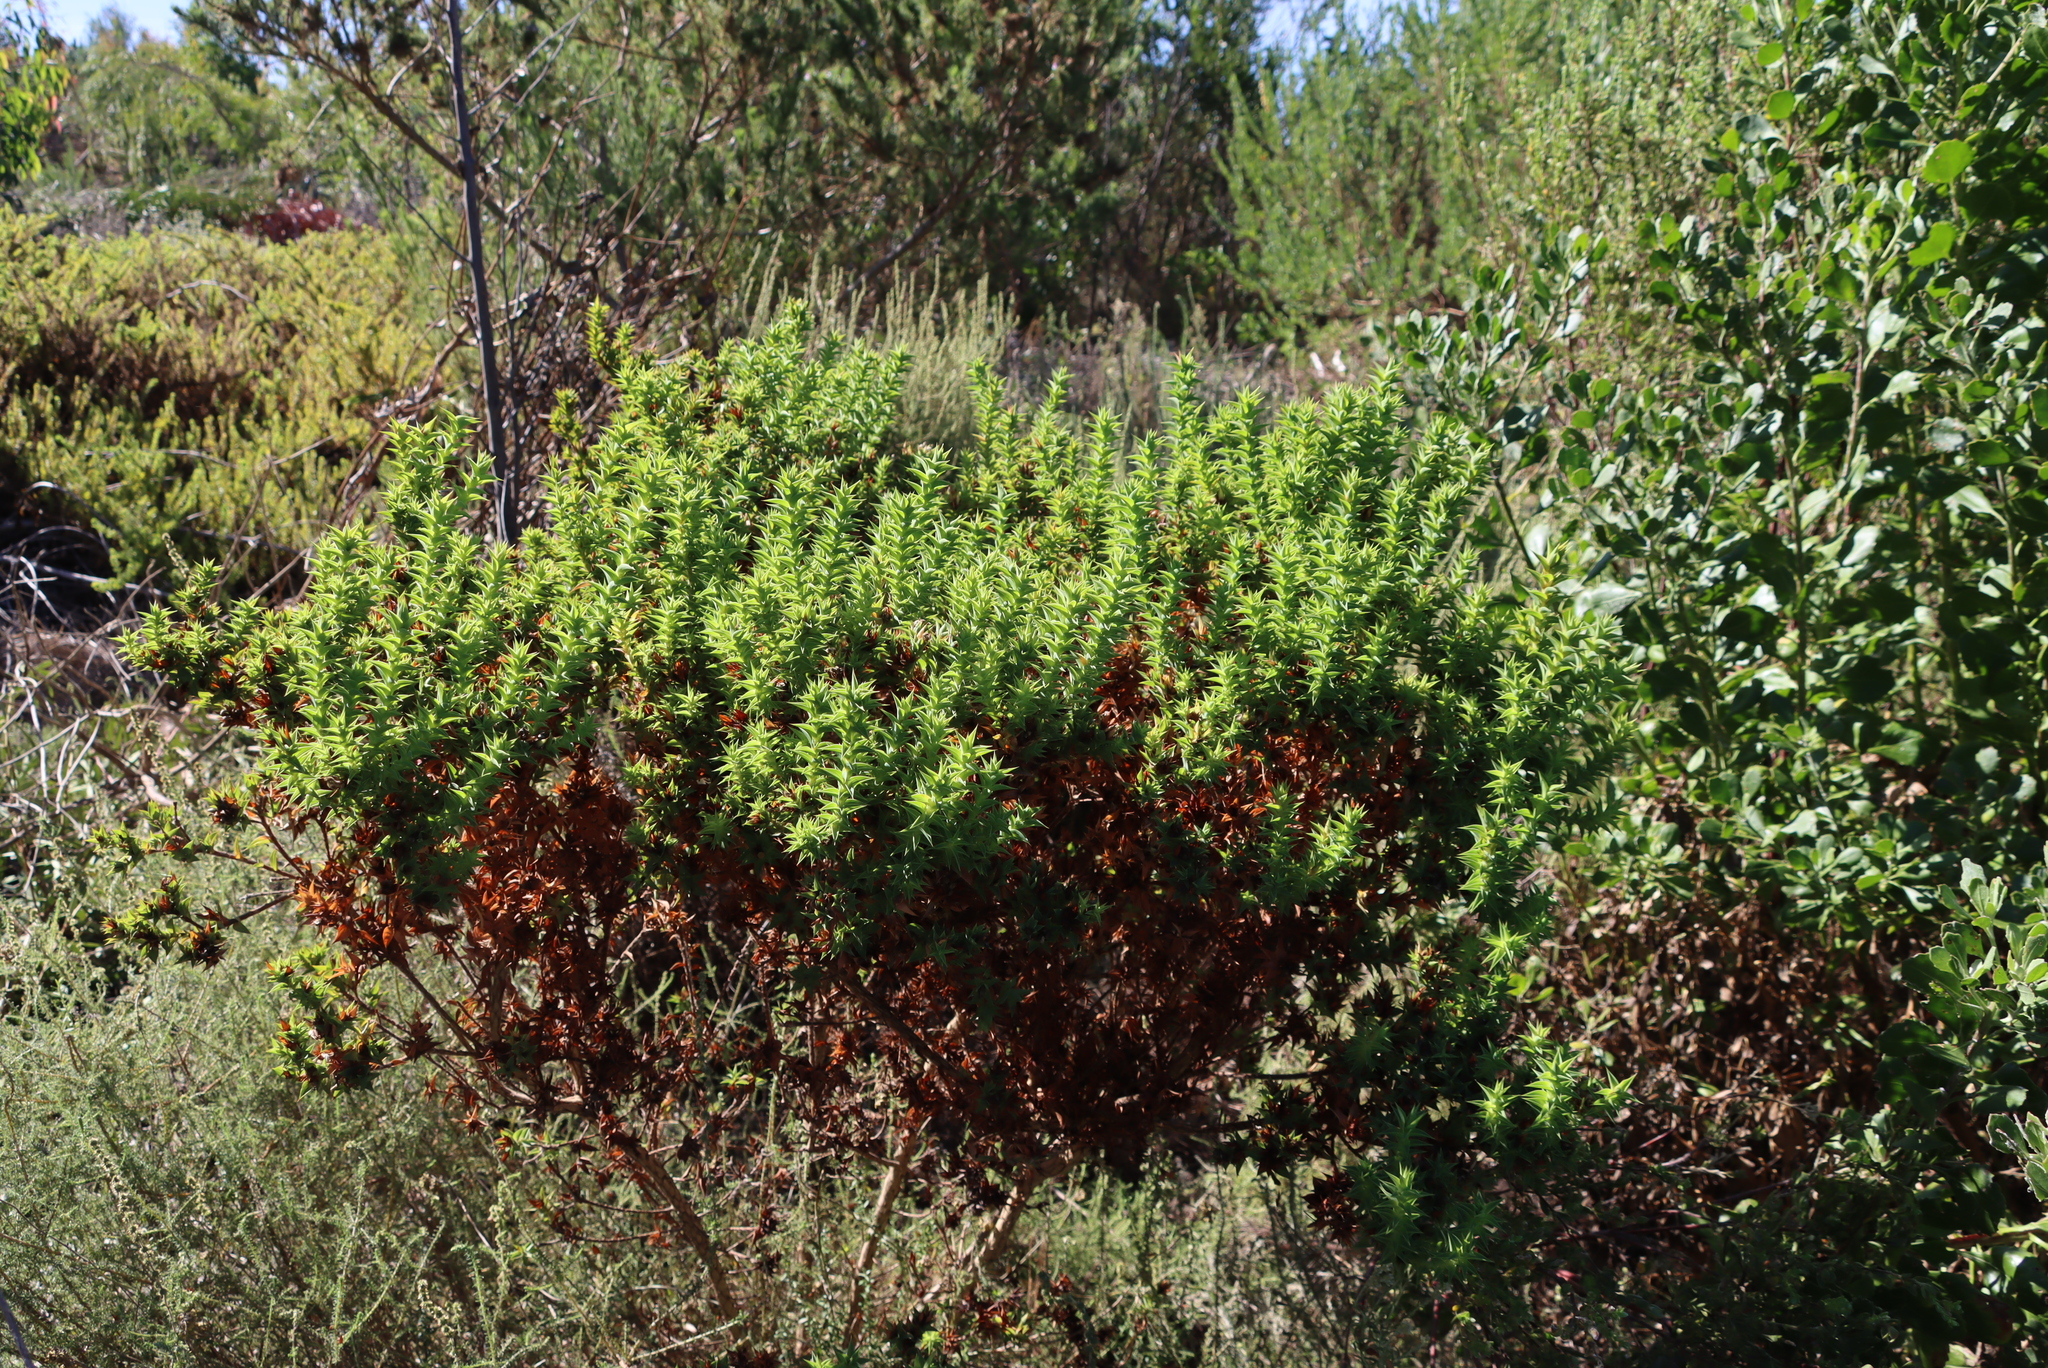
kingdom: Plantae
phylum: Tracheophyta
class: Magnoliopsida
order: Fabales
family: Fabaceae
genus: Aspalathus
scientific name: Aspalathus cordata
